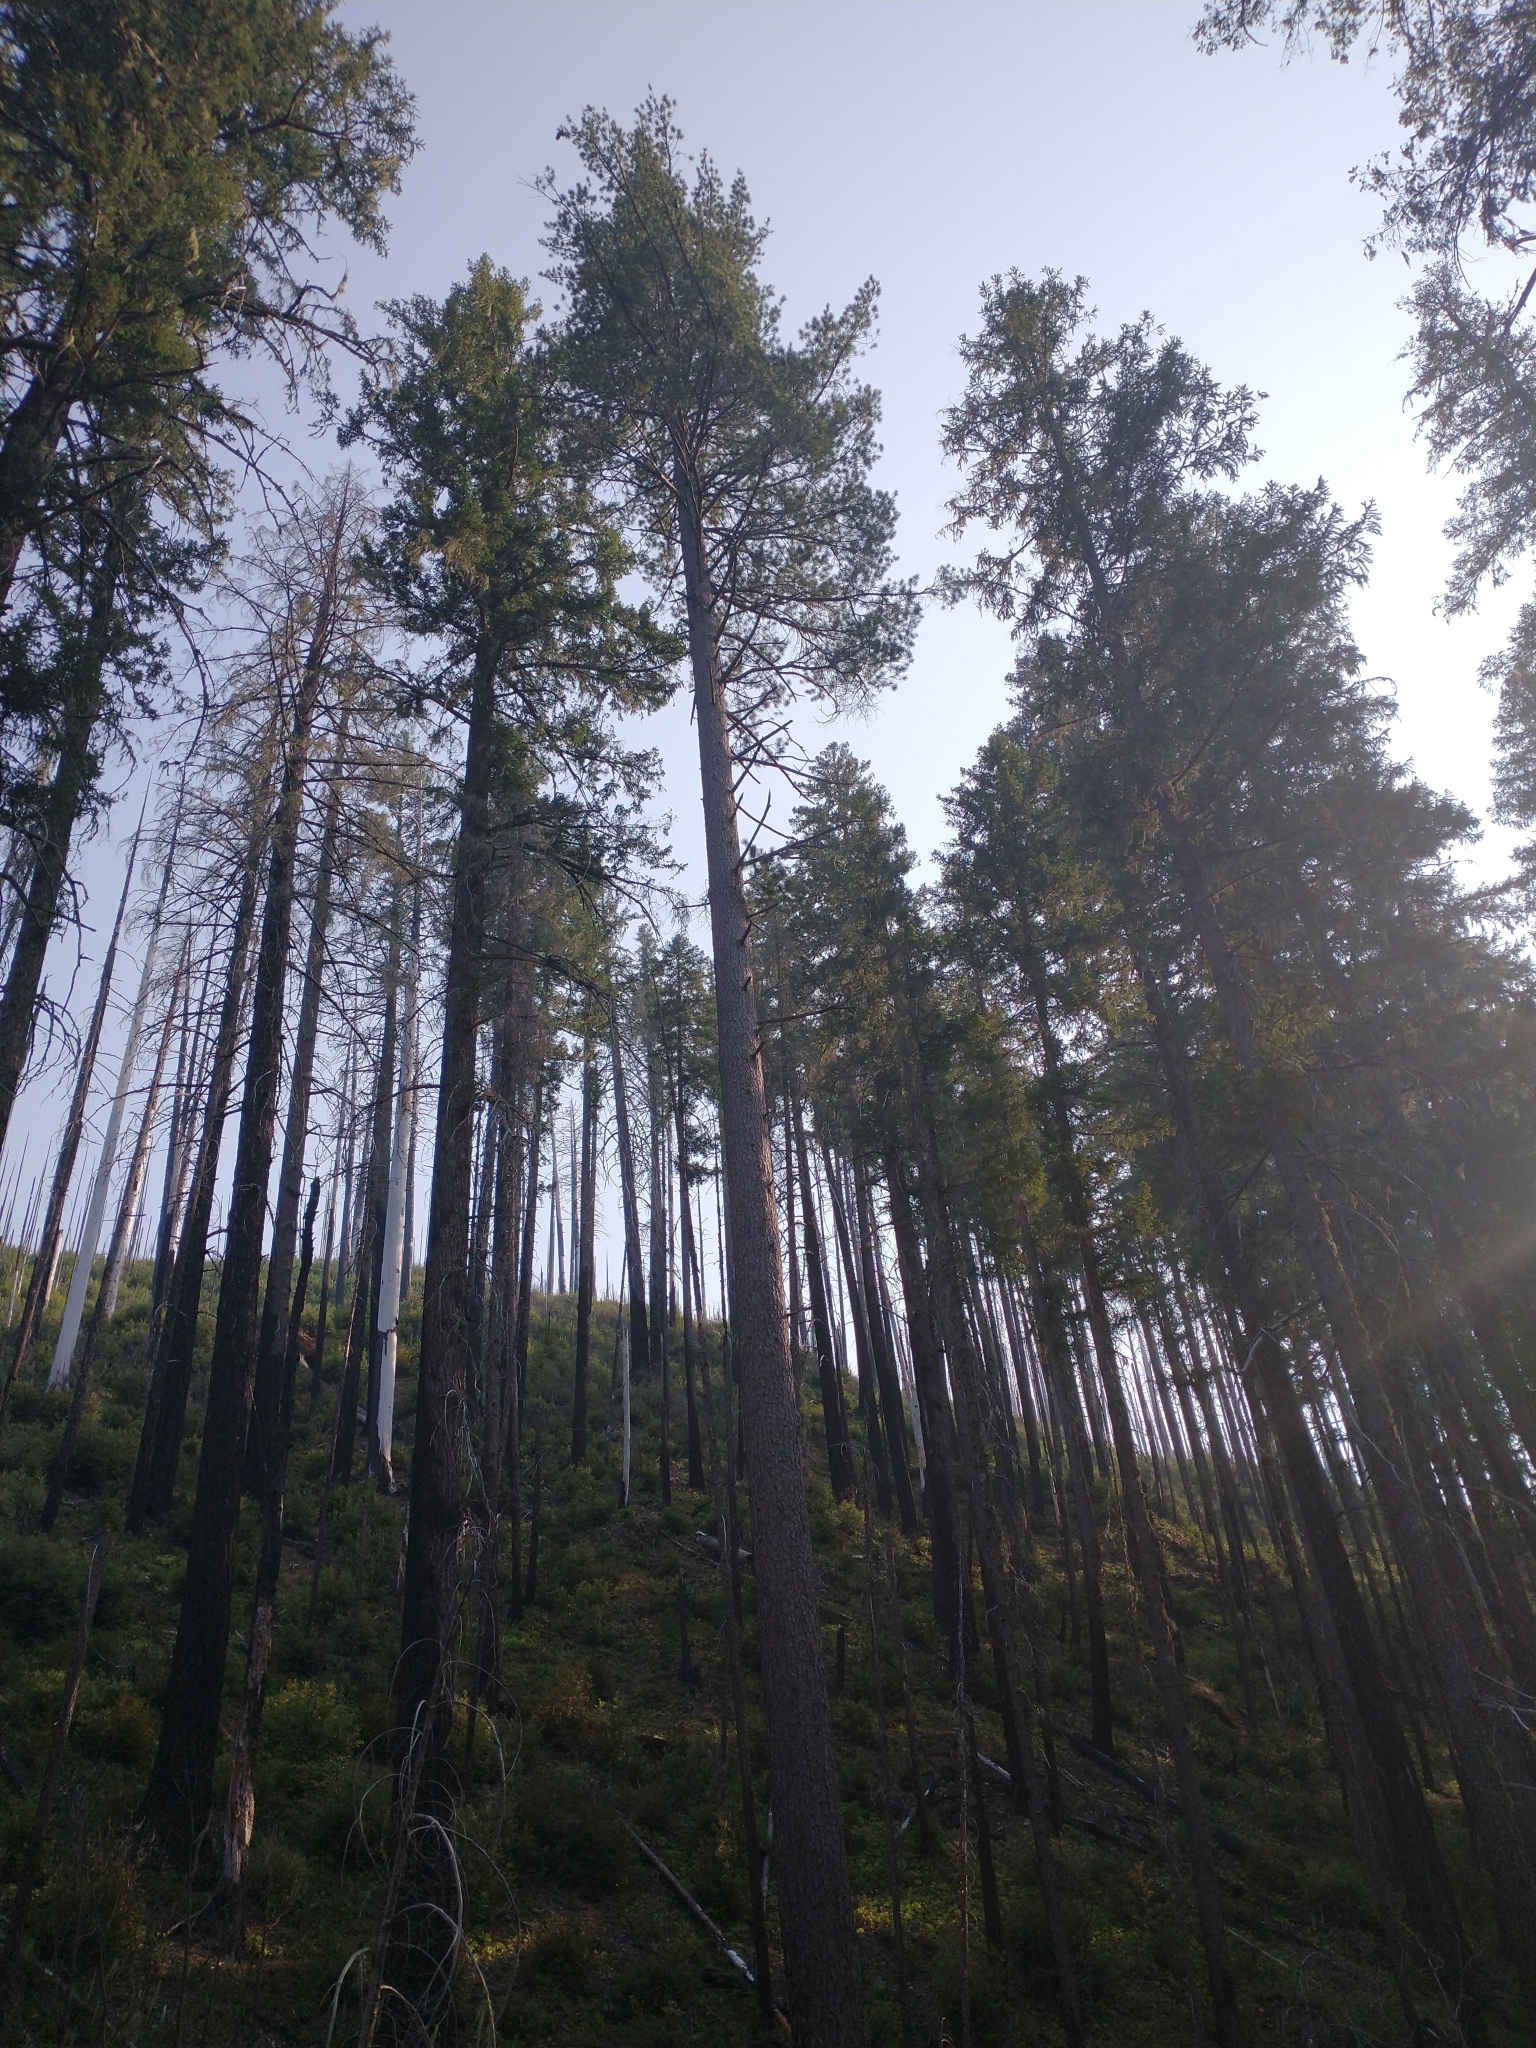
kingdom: Plantae
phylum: Tracheophyta
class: Pinopsida
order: Pinales
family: Pinaceae
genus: Pinus
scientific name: Pinus lambertiana
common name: Sugar pine
